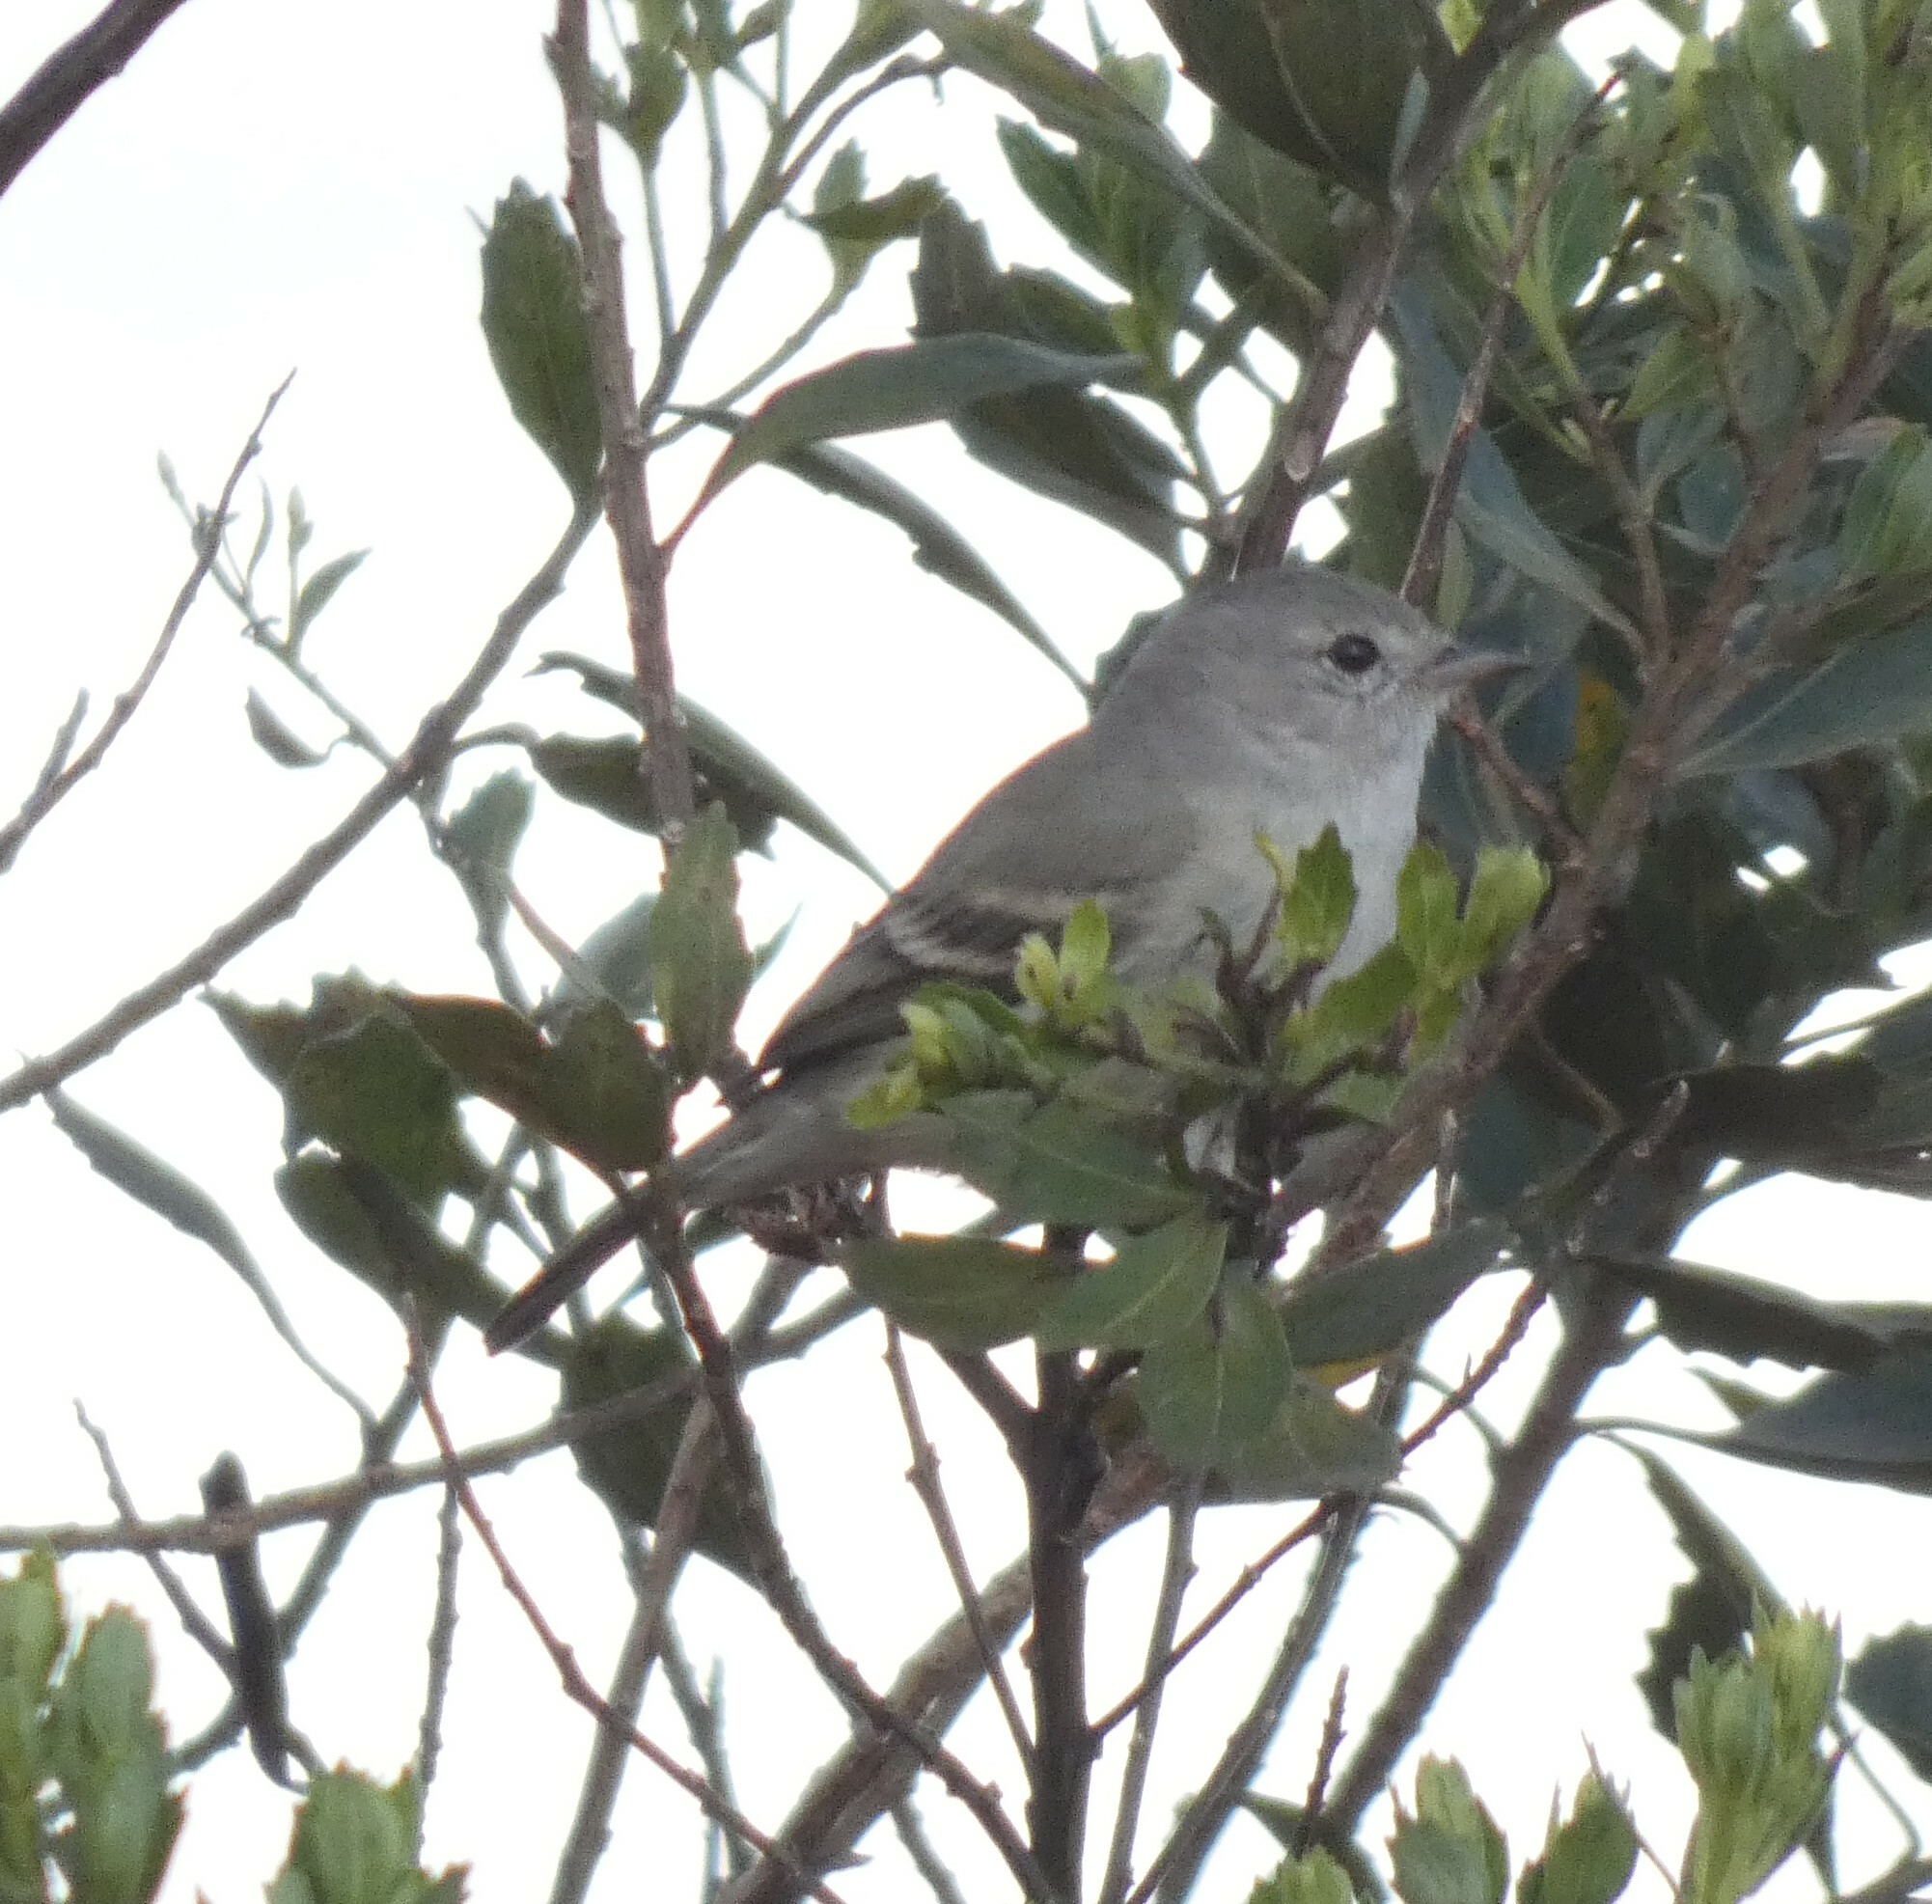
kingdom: Animalia
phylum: Chordata
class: Aves
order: Passeriformes
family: Tyrannidae
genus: Camptostoma
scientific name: Camptostoma obsoletum
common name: Southern beardless-tyrannulet
